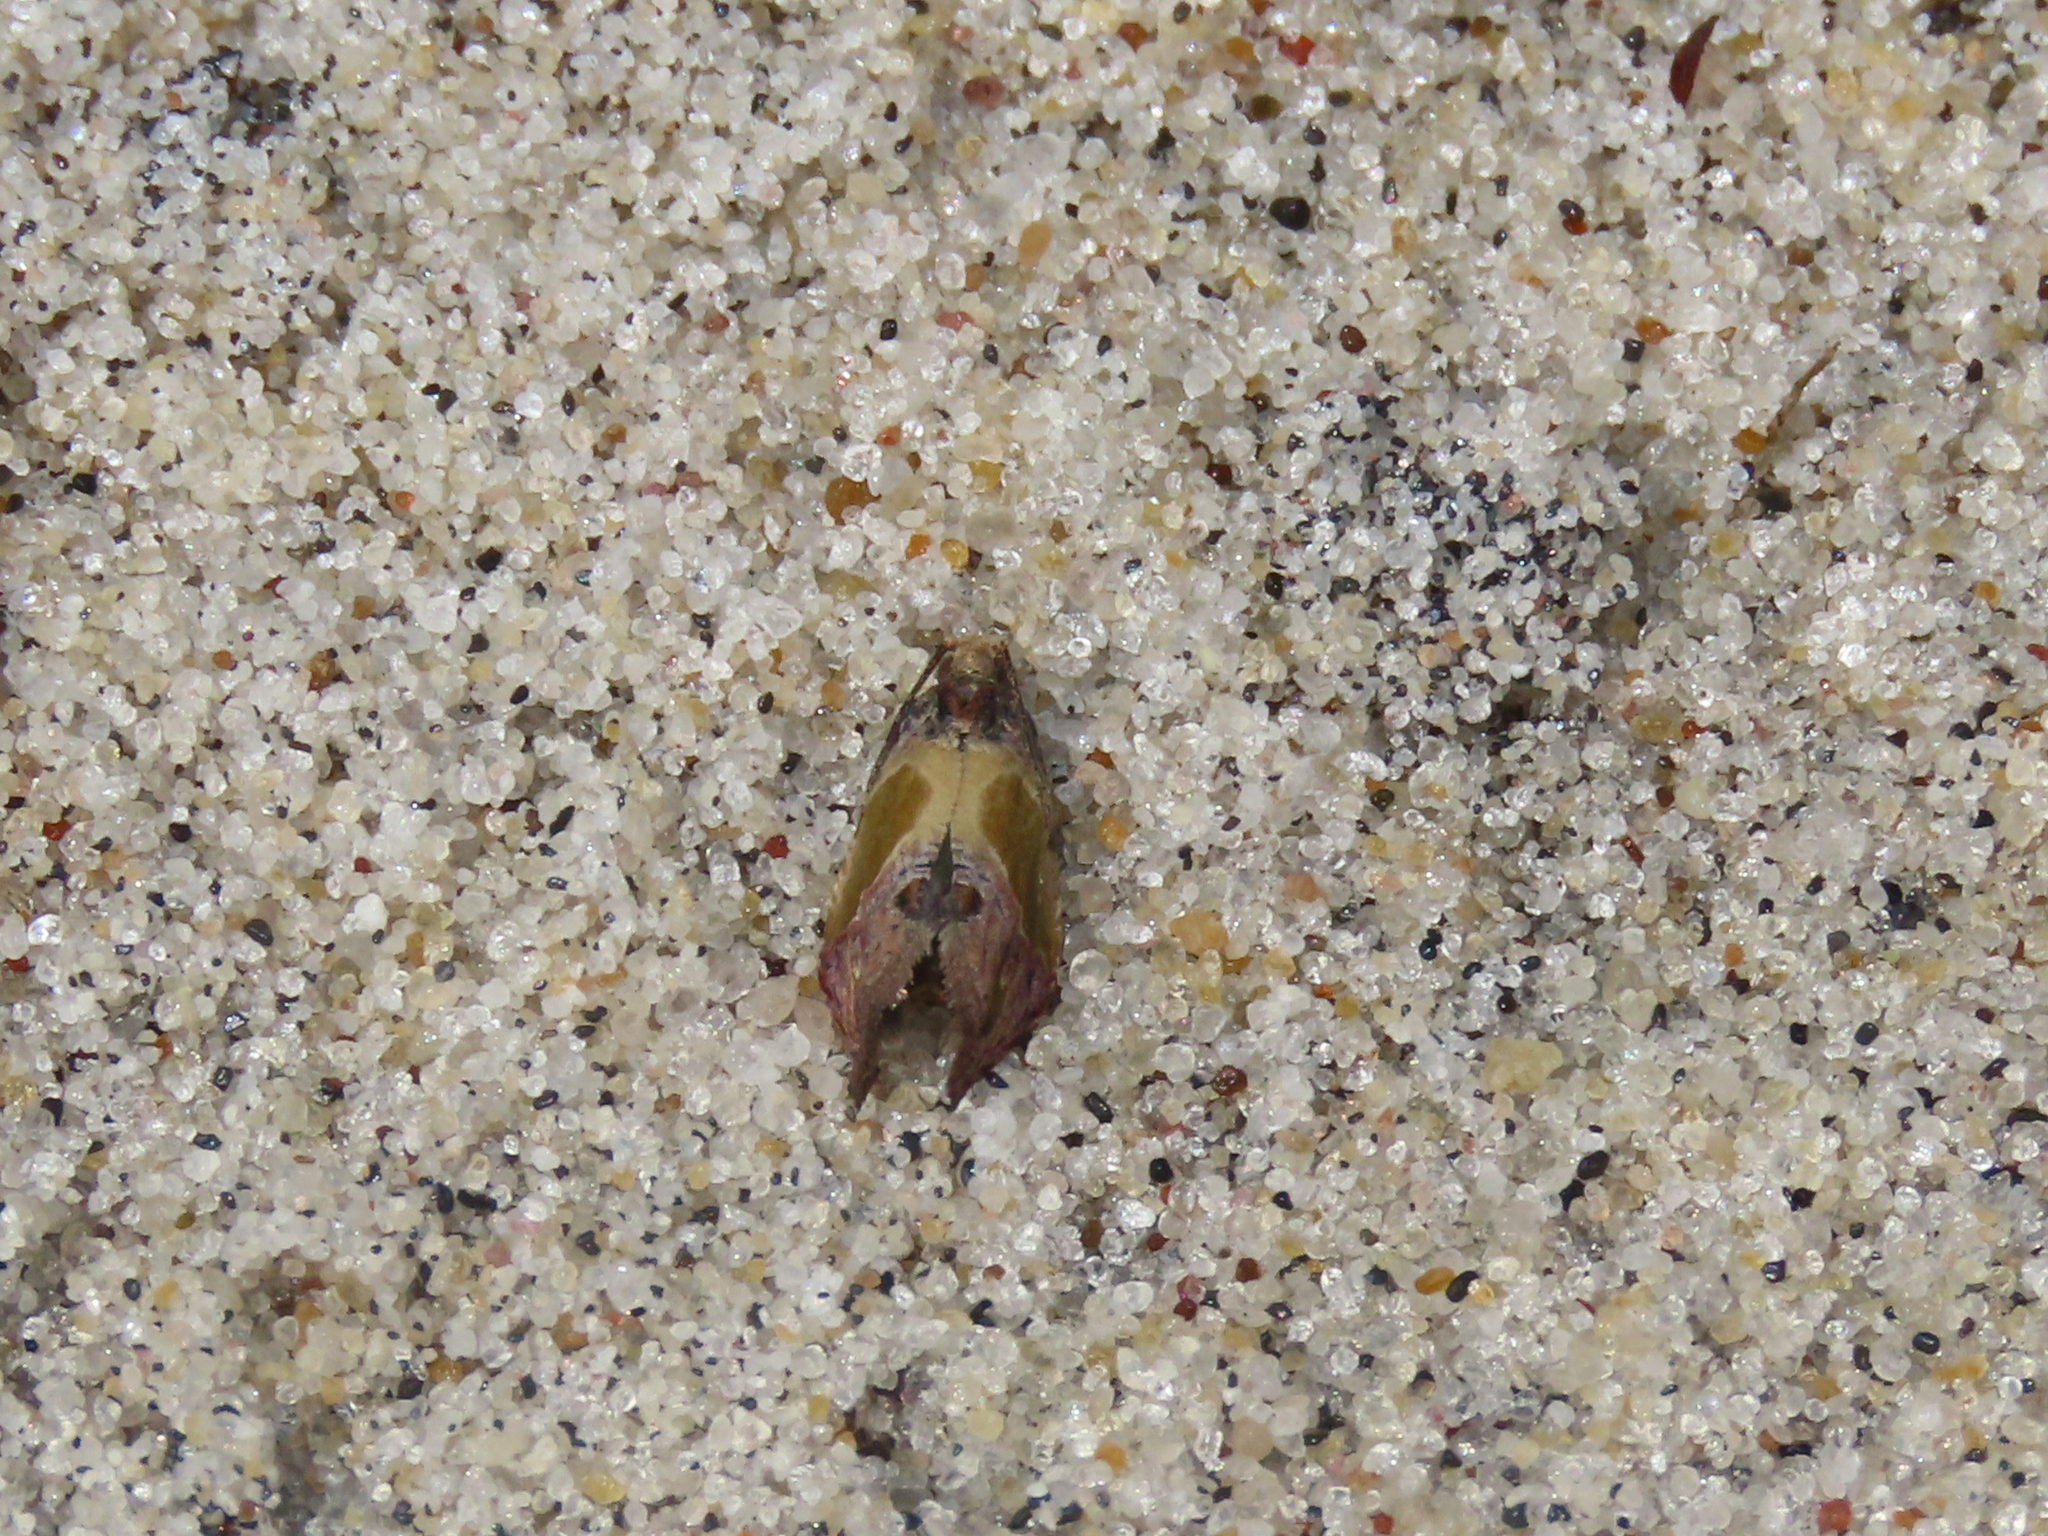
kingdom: Animalia
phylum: Arthropoda
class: Insecta
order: Lepidoptera
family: Tortricidae
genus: Eumarozia
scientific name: Eumarozia malachitana
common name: Sculptured moth
